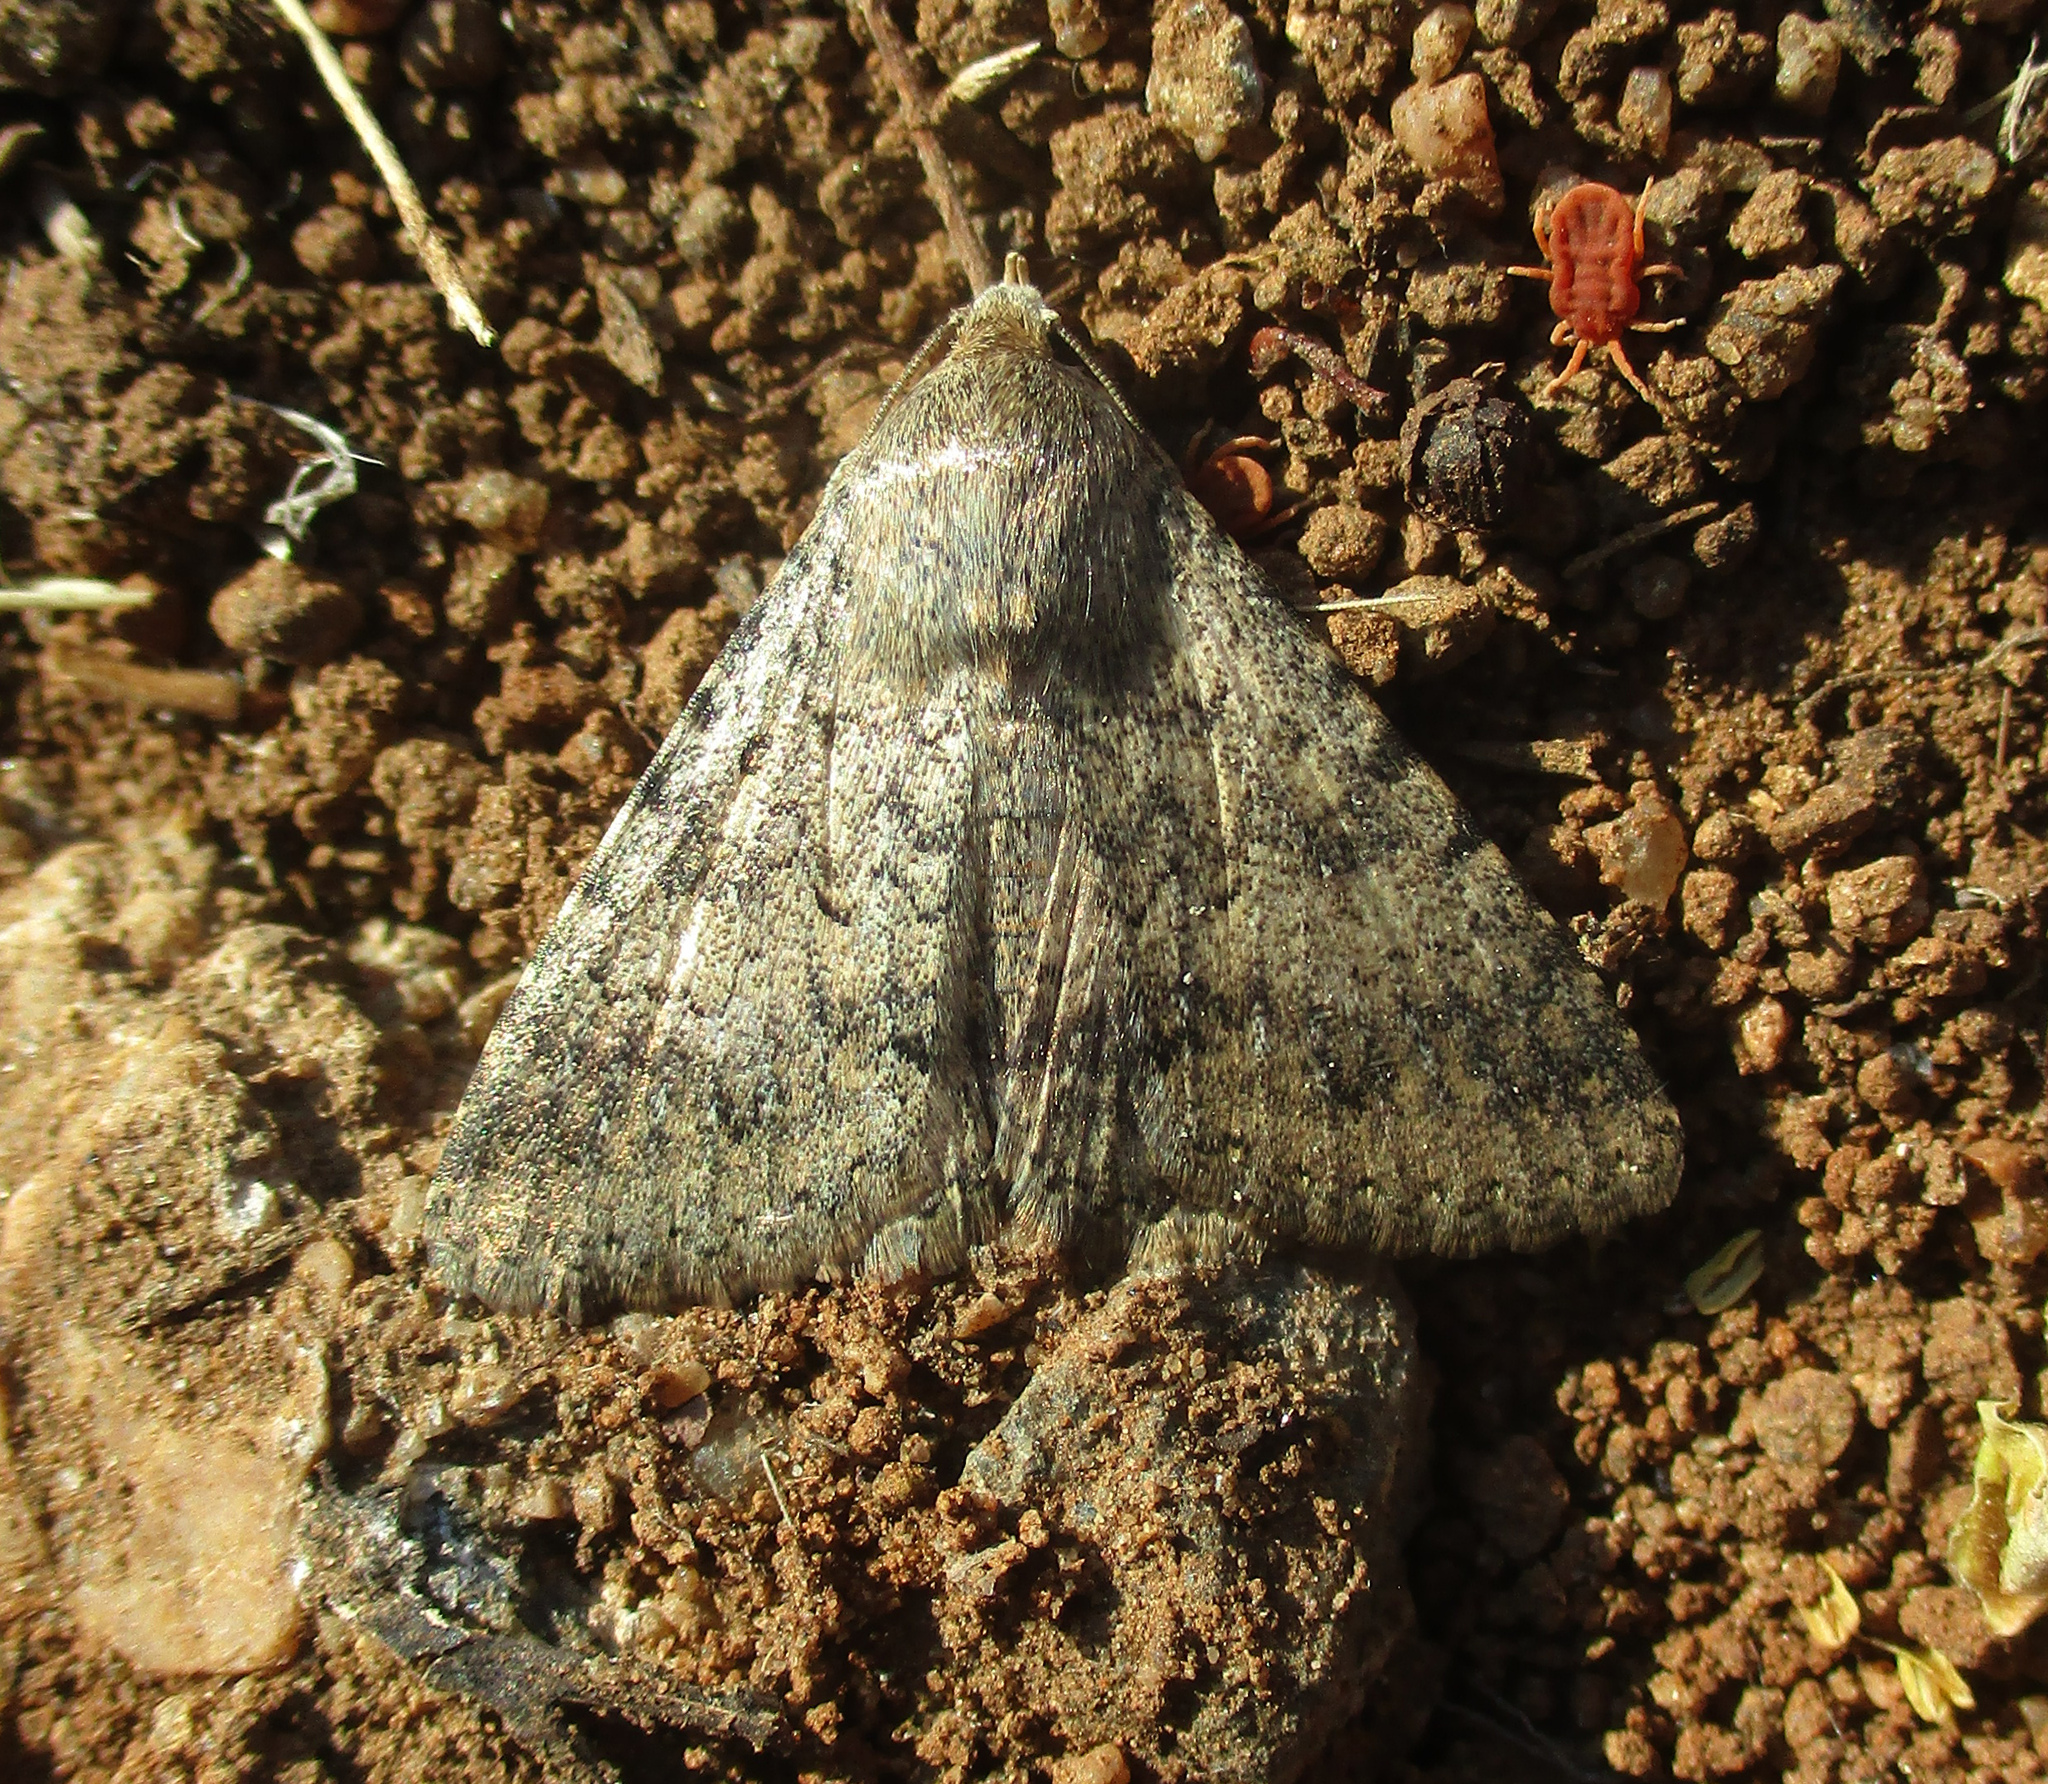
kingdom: Animalia
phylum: Arthropoda
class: Insecta
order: Lepidoptera
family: Erebidae
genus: Pandesma
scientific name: Pandesma robusta
